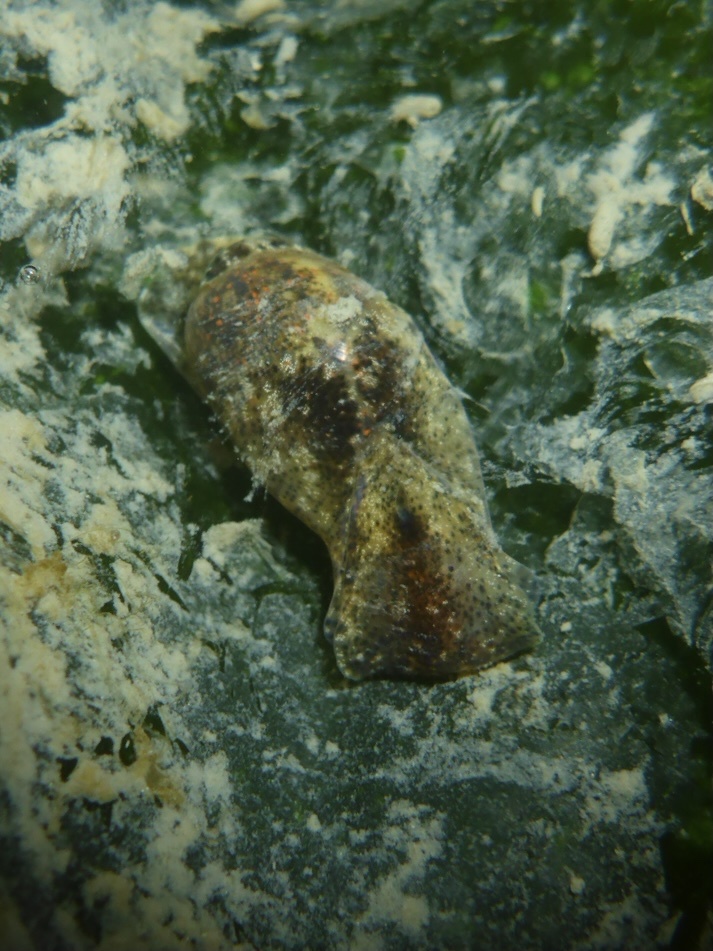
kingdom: Animalia
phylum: Mollusca
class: Gastropoda
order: Cephalaspidea
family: Haminoeidae
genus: Haloa
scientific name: Haloa japonica
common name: Japanese bubble snail
